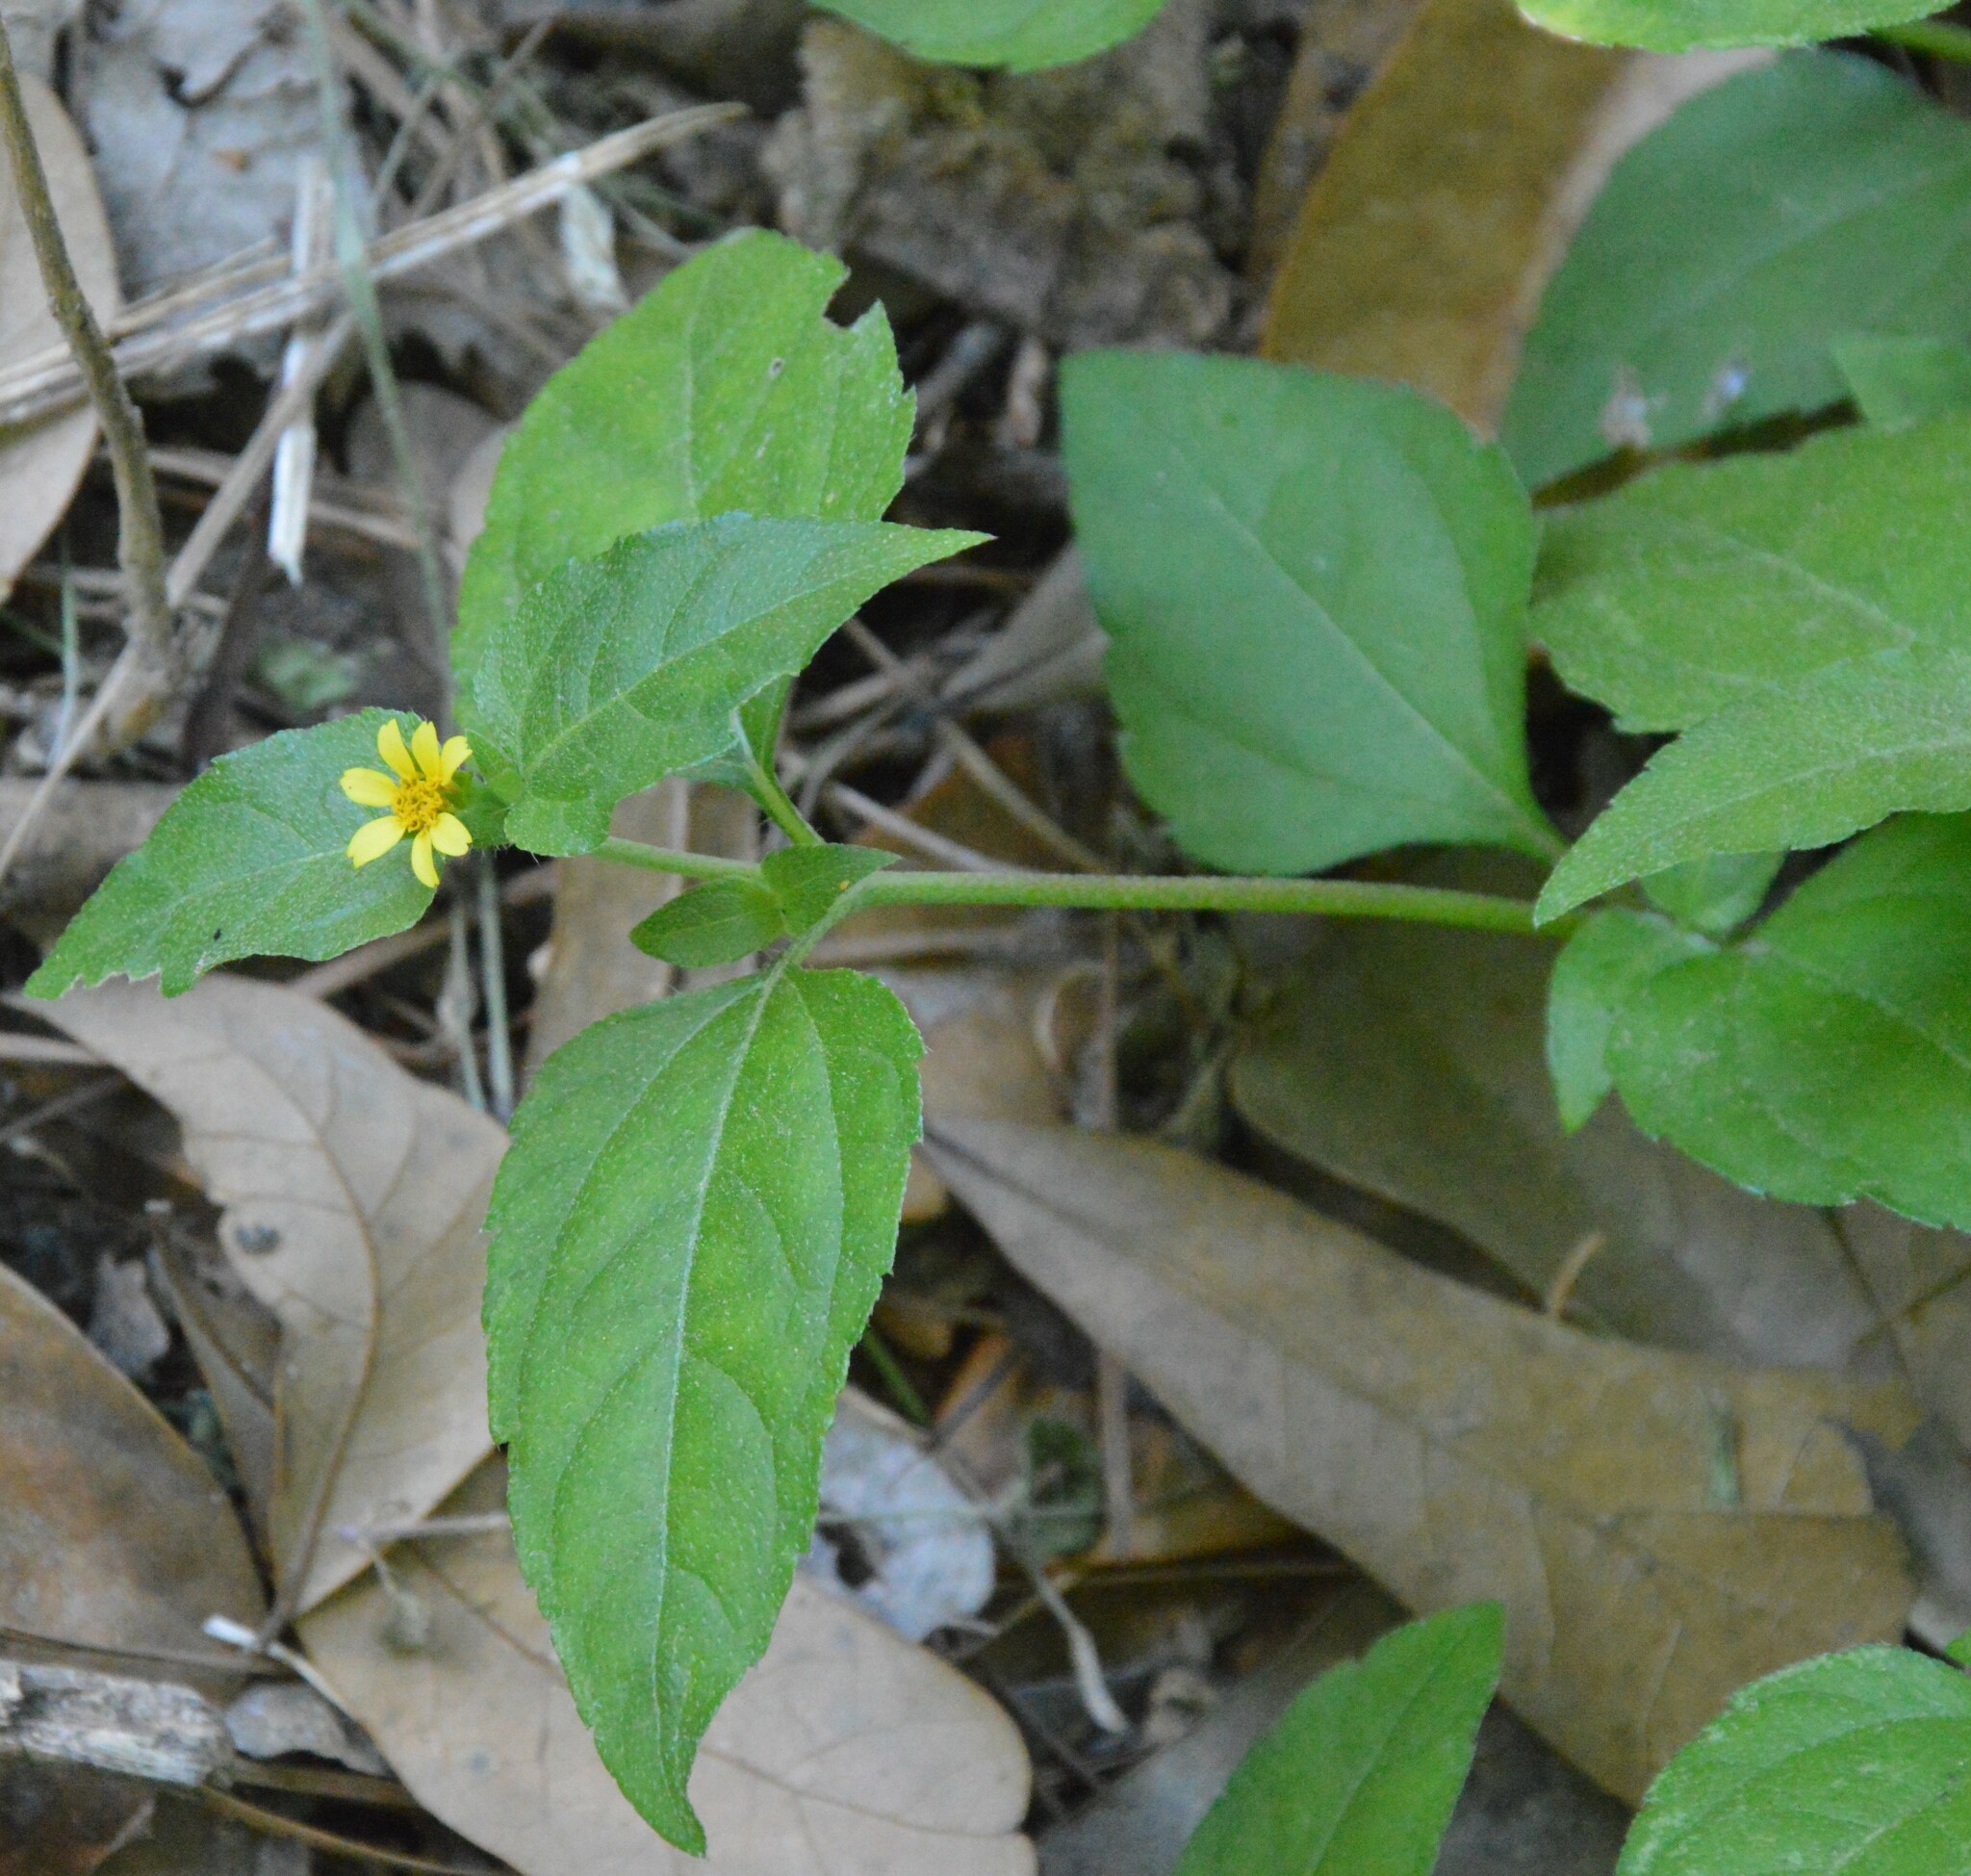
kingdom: Plantae
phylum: Tracheophyta
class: Magnoliopsida
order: Asterales
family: Asteraceae
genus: Calyptocarpus
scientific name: Calyptocarpus vialis
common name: Straggler daisy
